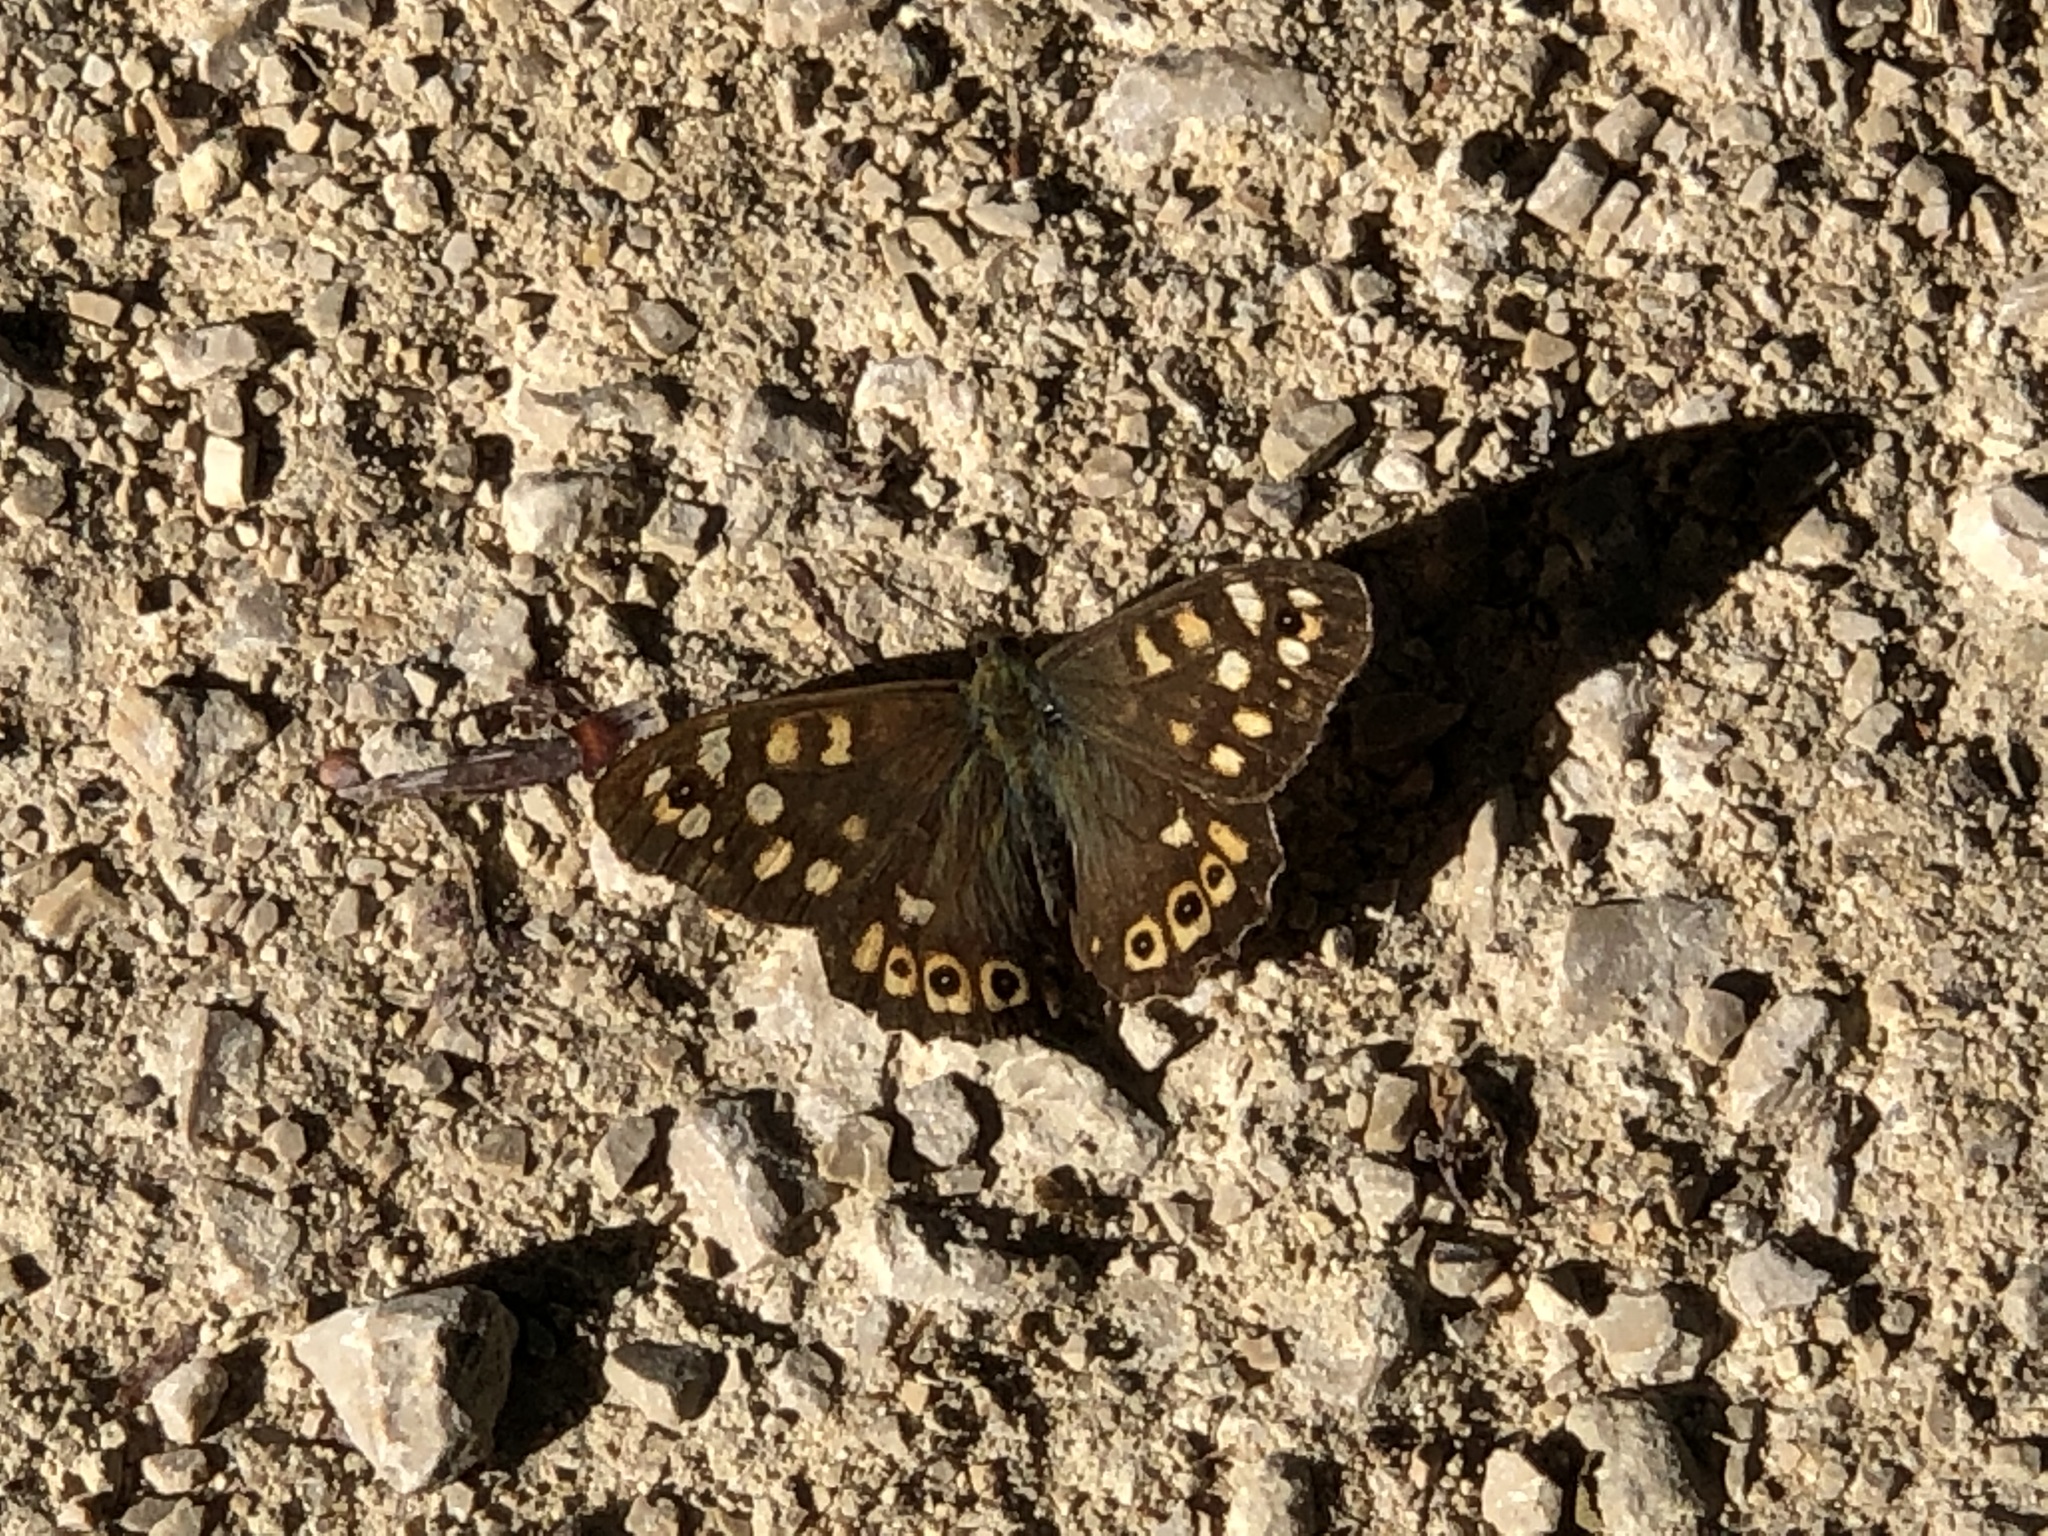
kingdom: Animalia
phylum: Arthropoda
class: Insecta
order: Lepidoptera
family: Nymphalidae
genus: Pararge
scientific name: Pararge aegeria
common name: Speckled wood
